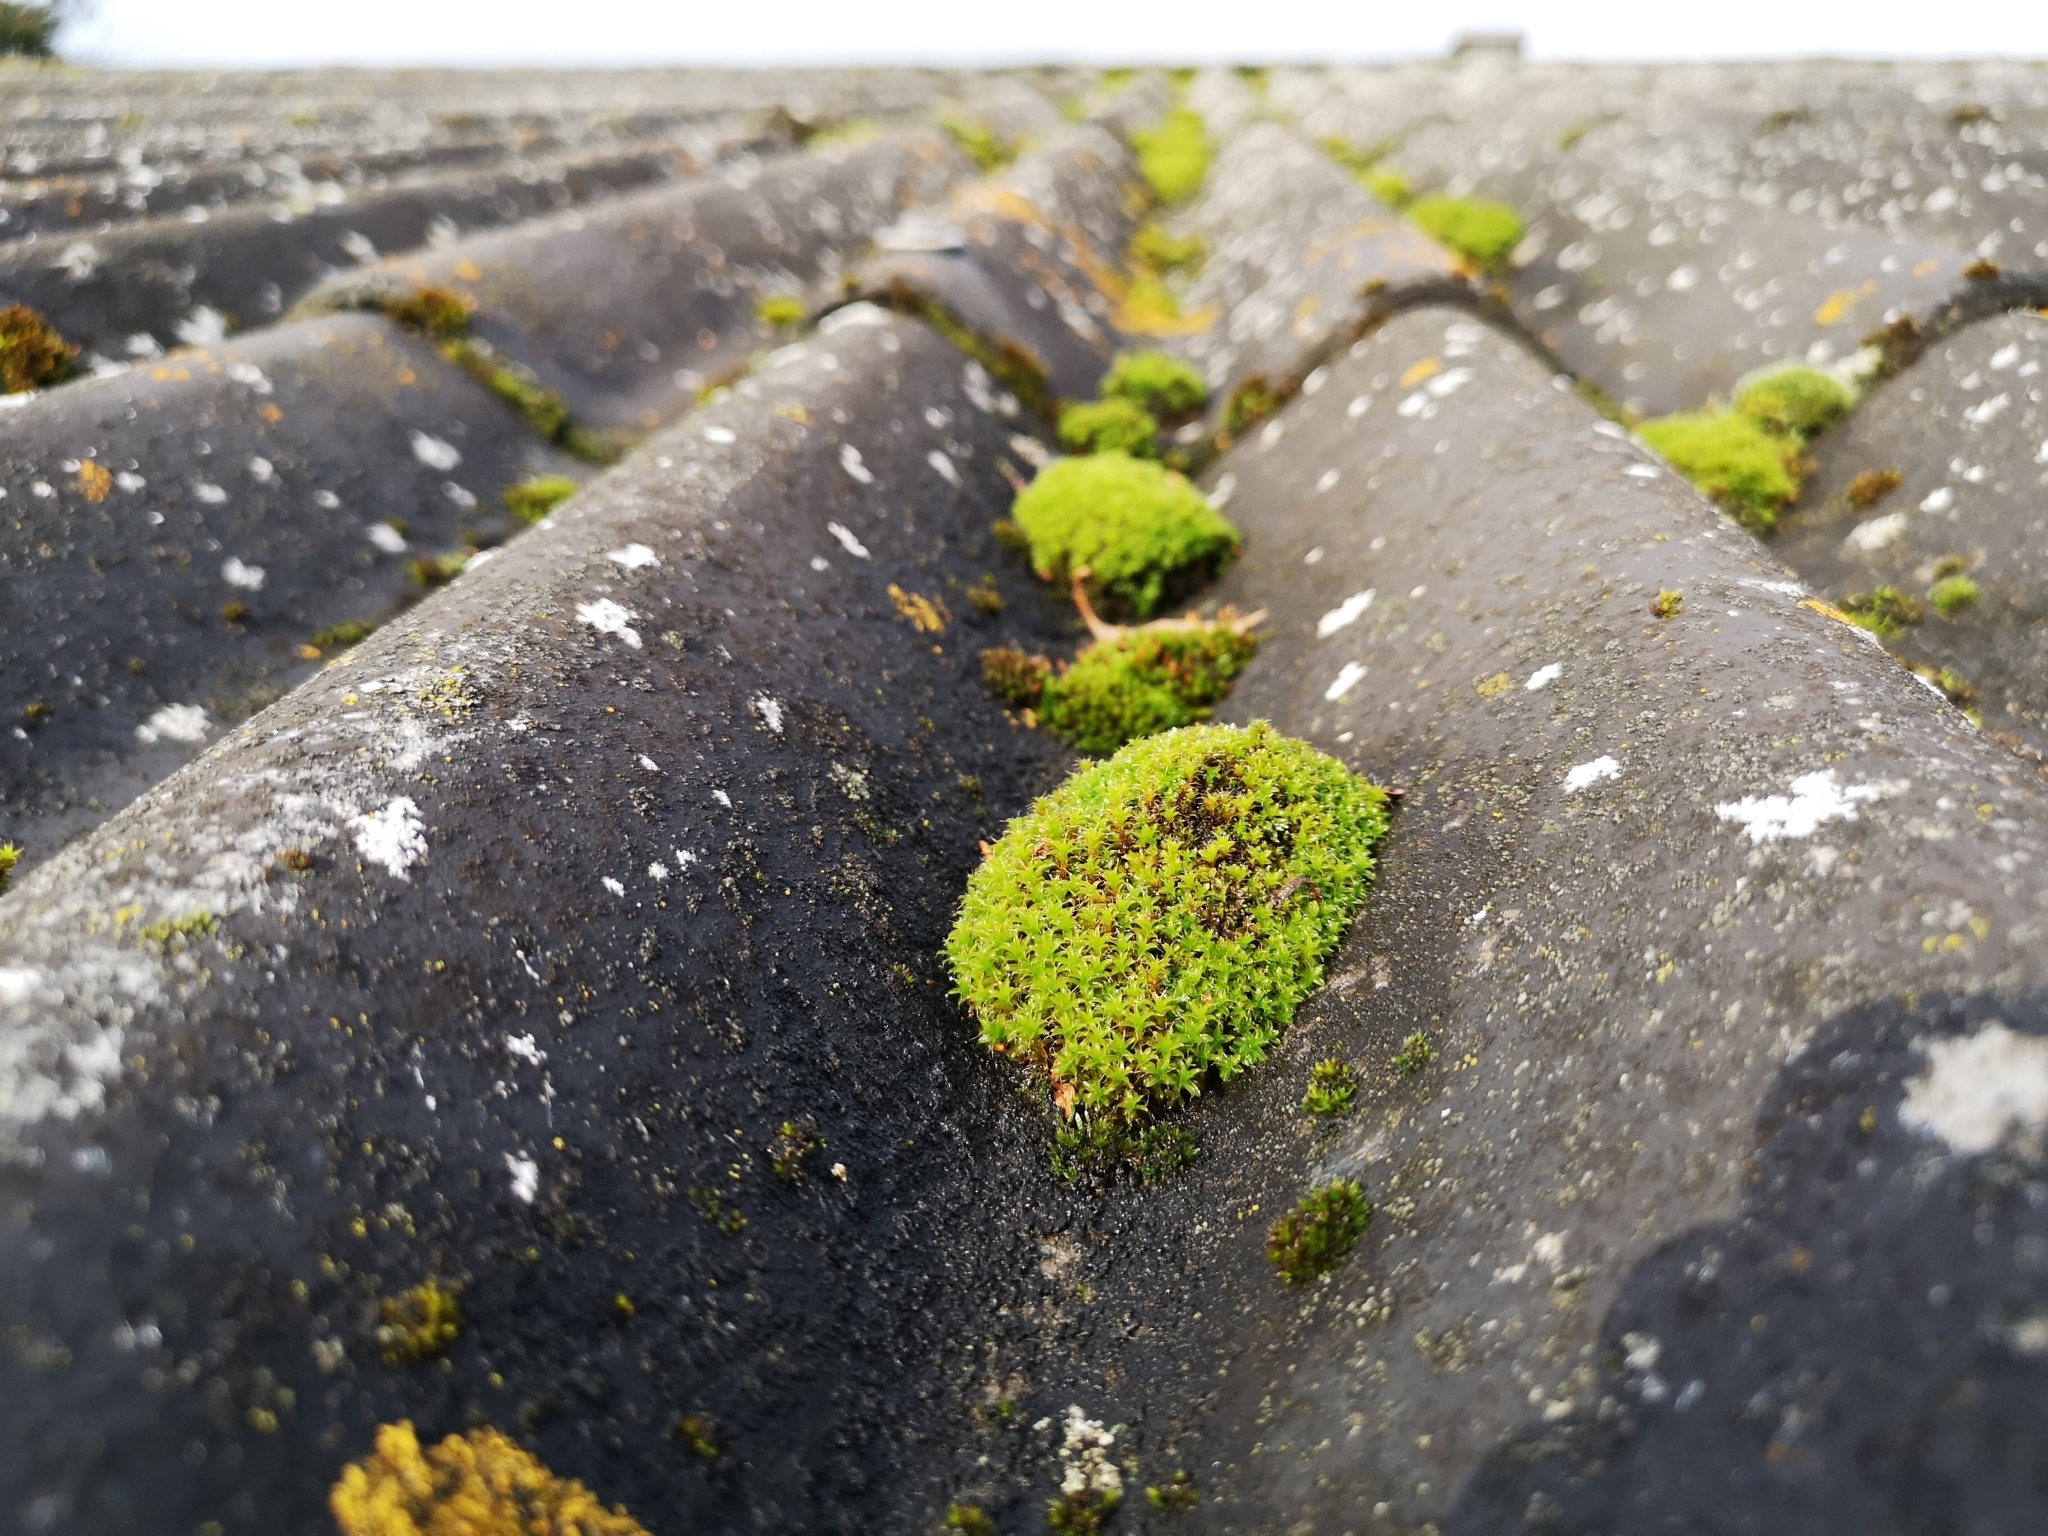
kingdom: Plantae
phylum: Bryophyta
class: Bryopsida
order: Pottiales
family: Pottiaceae
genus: Syntrichia
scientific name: Syntrichia ruralis
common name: Sidewalk screw moss
